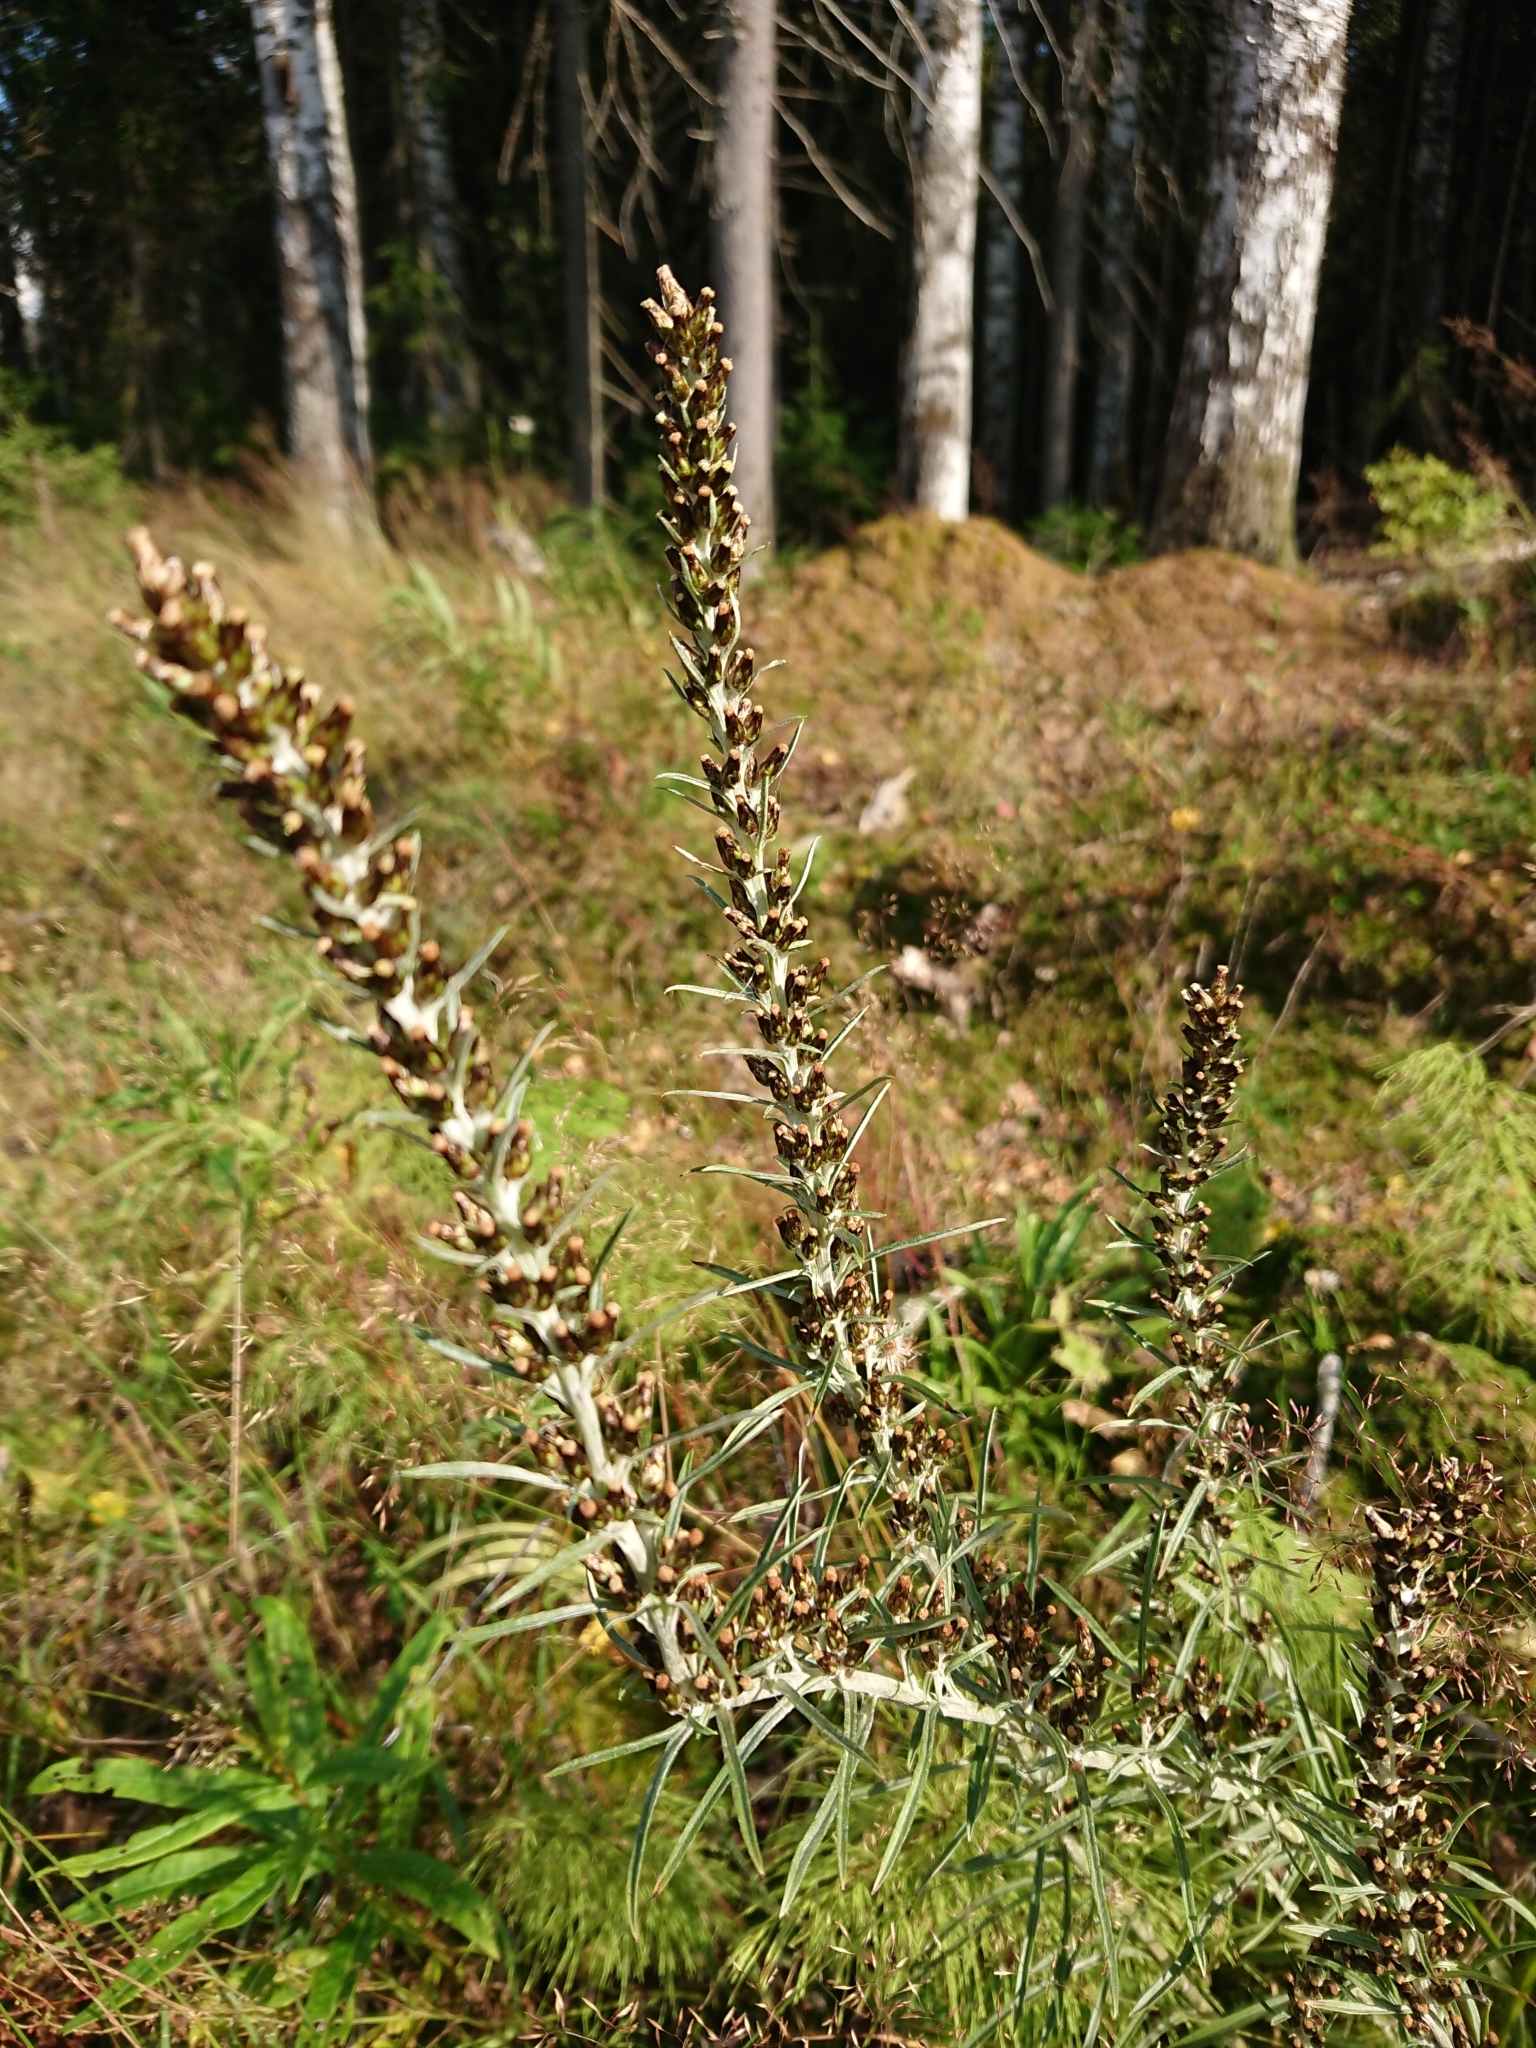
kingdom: Plantae
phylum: Tracheophyta
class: Magnoliopsida
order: Asterales
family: Asteraceae
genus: Omalotheca
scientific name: Omalotheca sylvatica
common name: Heath cudweed
